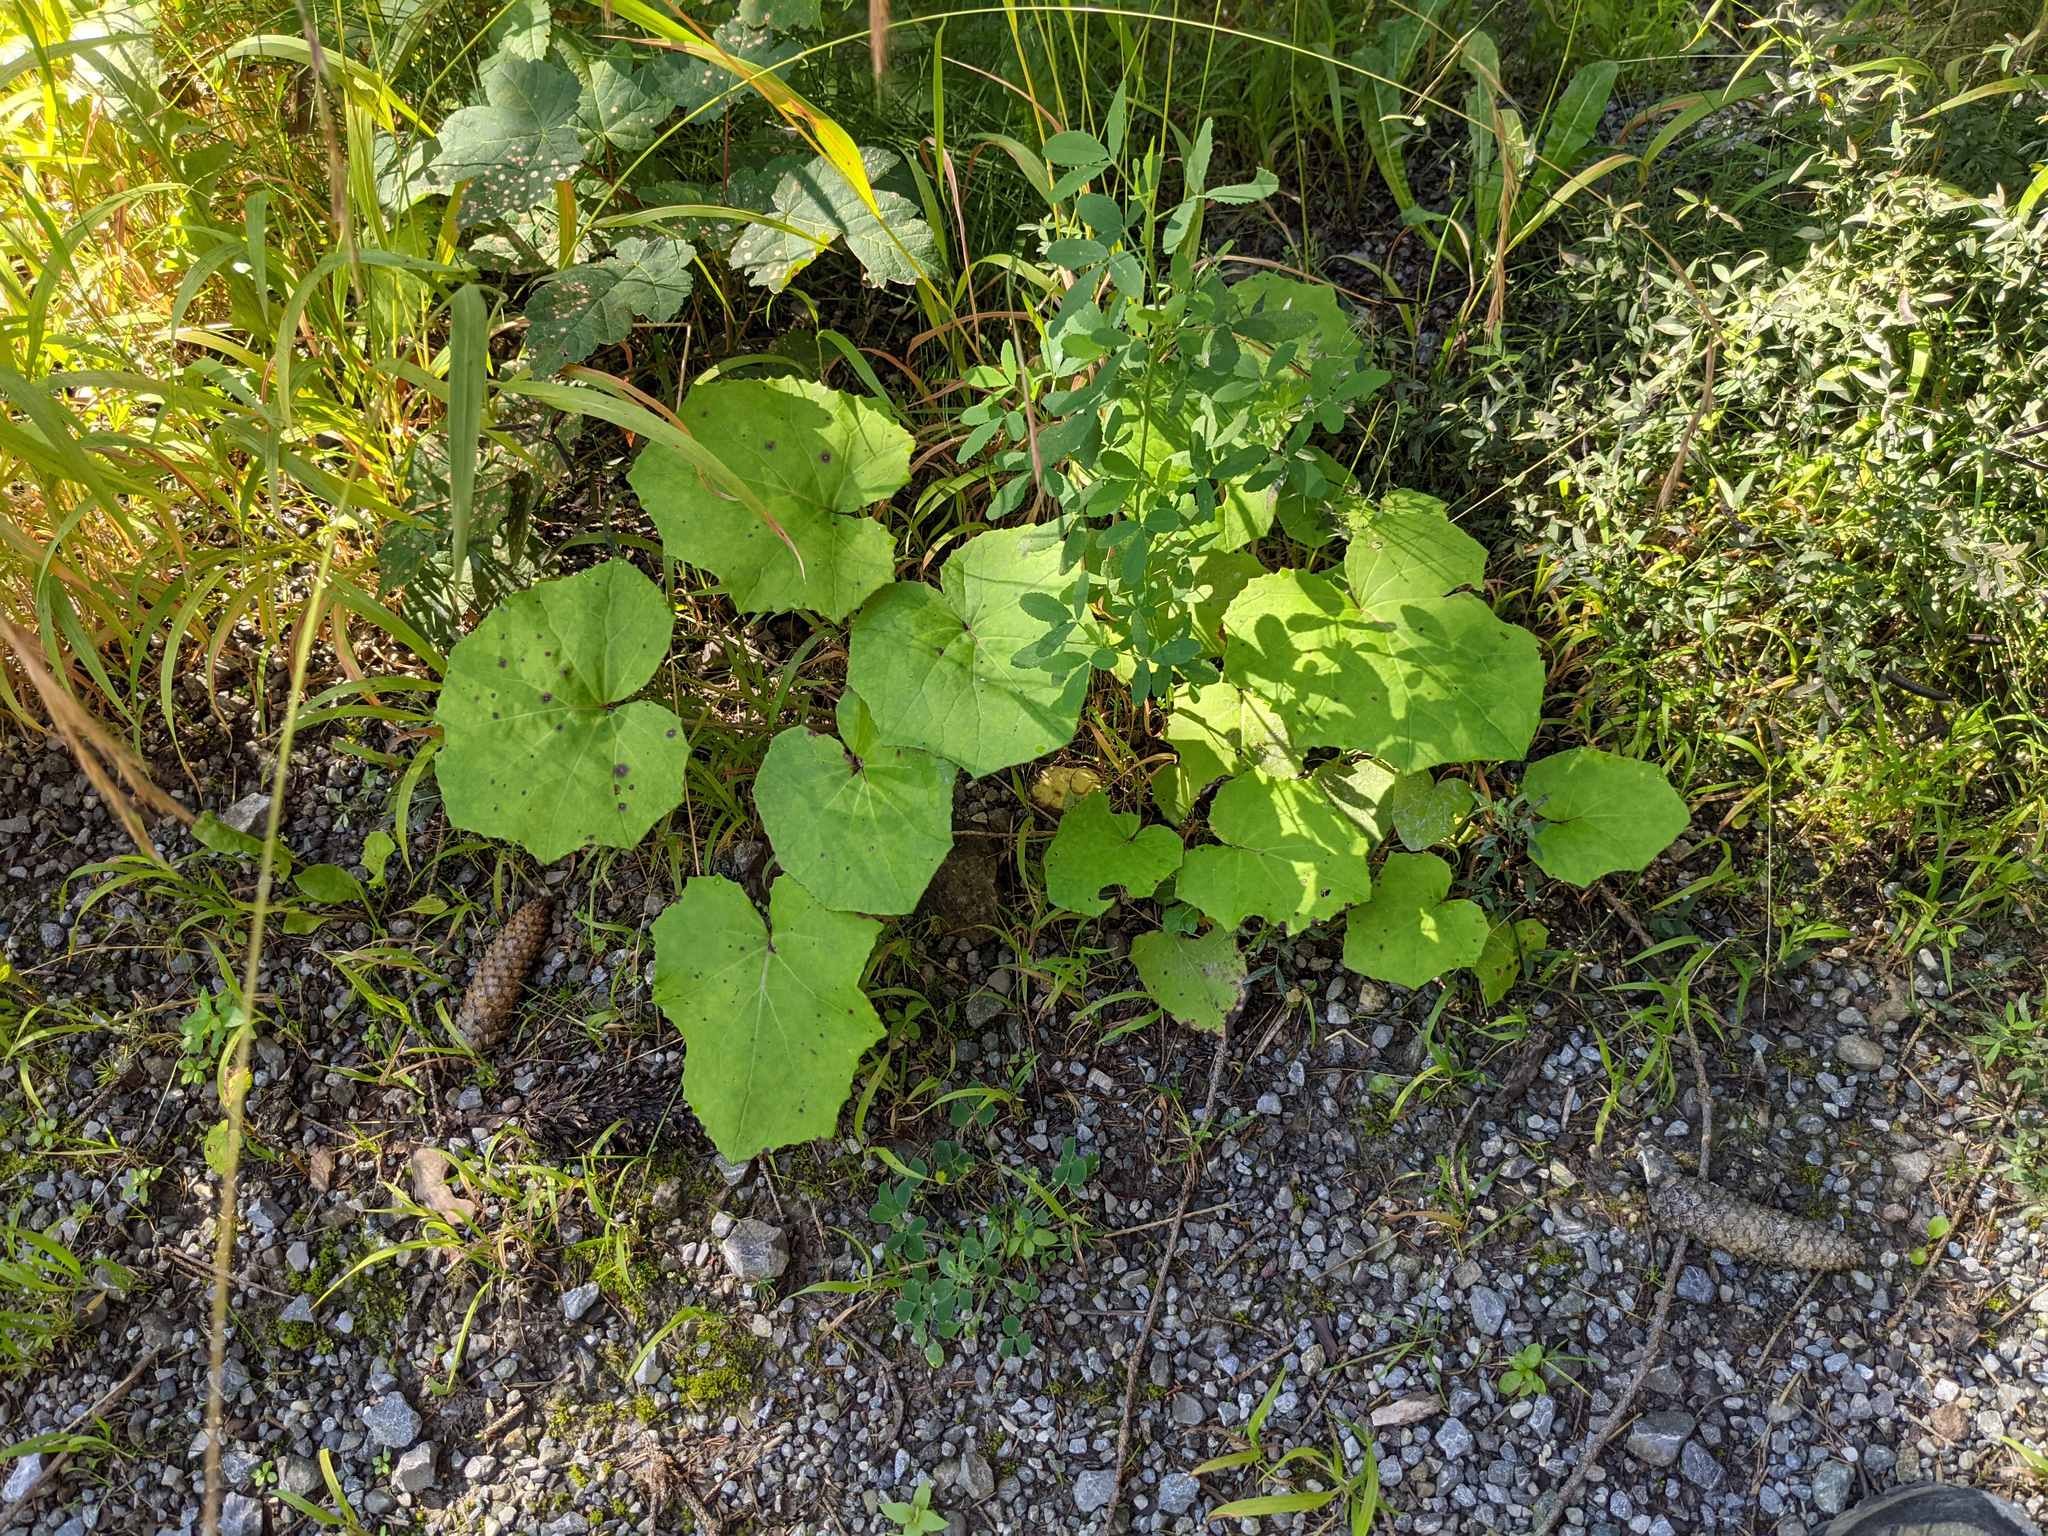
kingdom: Plantae
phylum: Tracheophyta
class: Magnoliopsida
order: Asterales
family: Asteraceae
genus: Tussilago
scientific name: Tussilago farfara
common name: Coltsfoot
